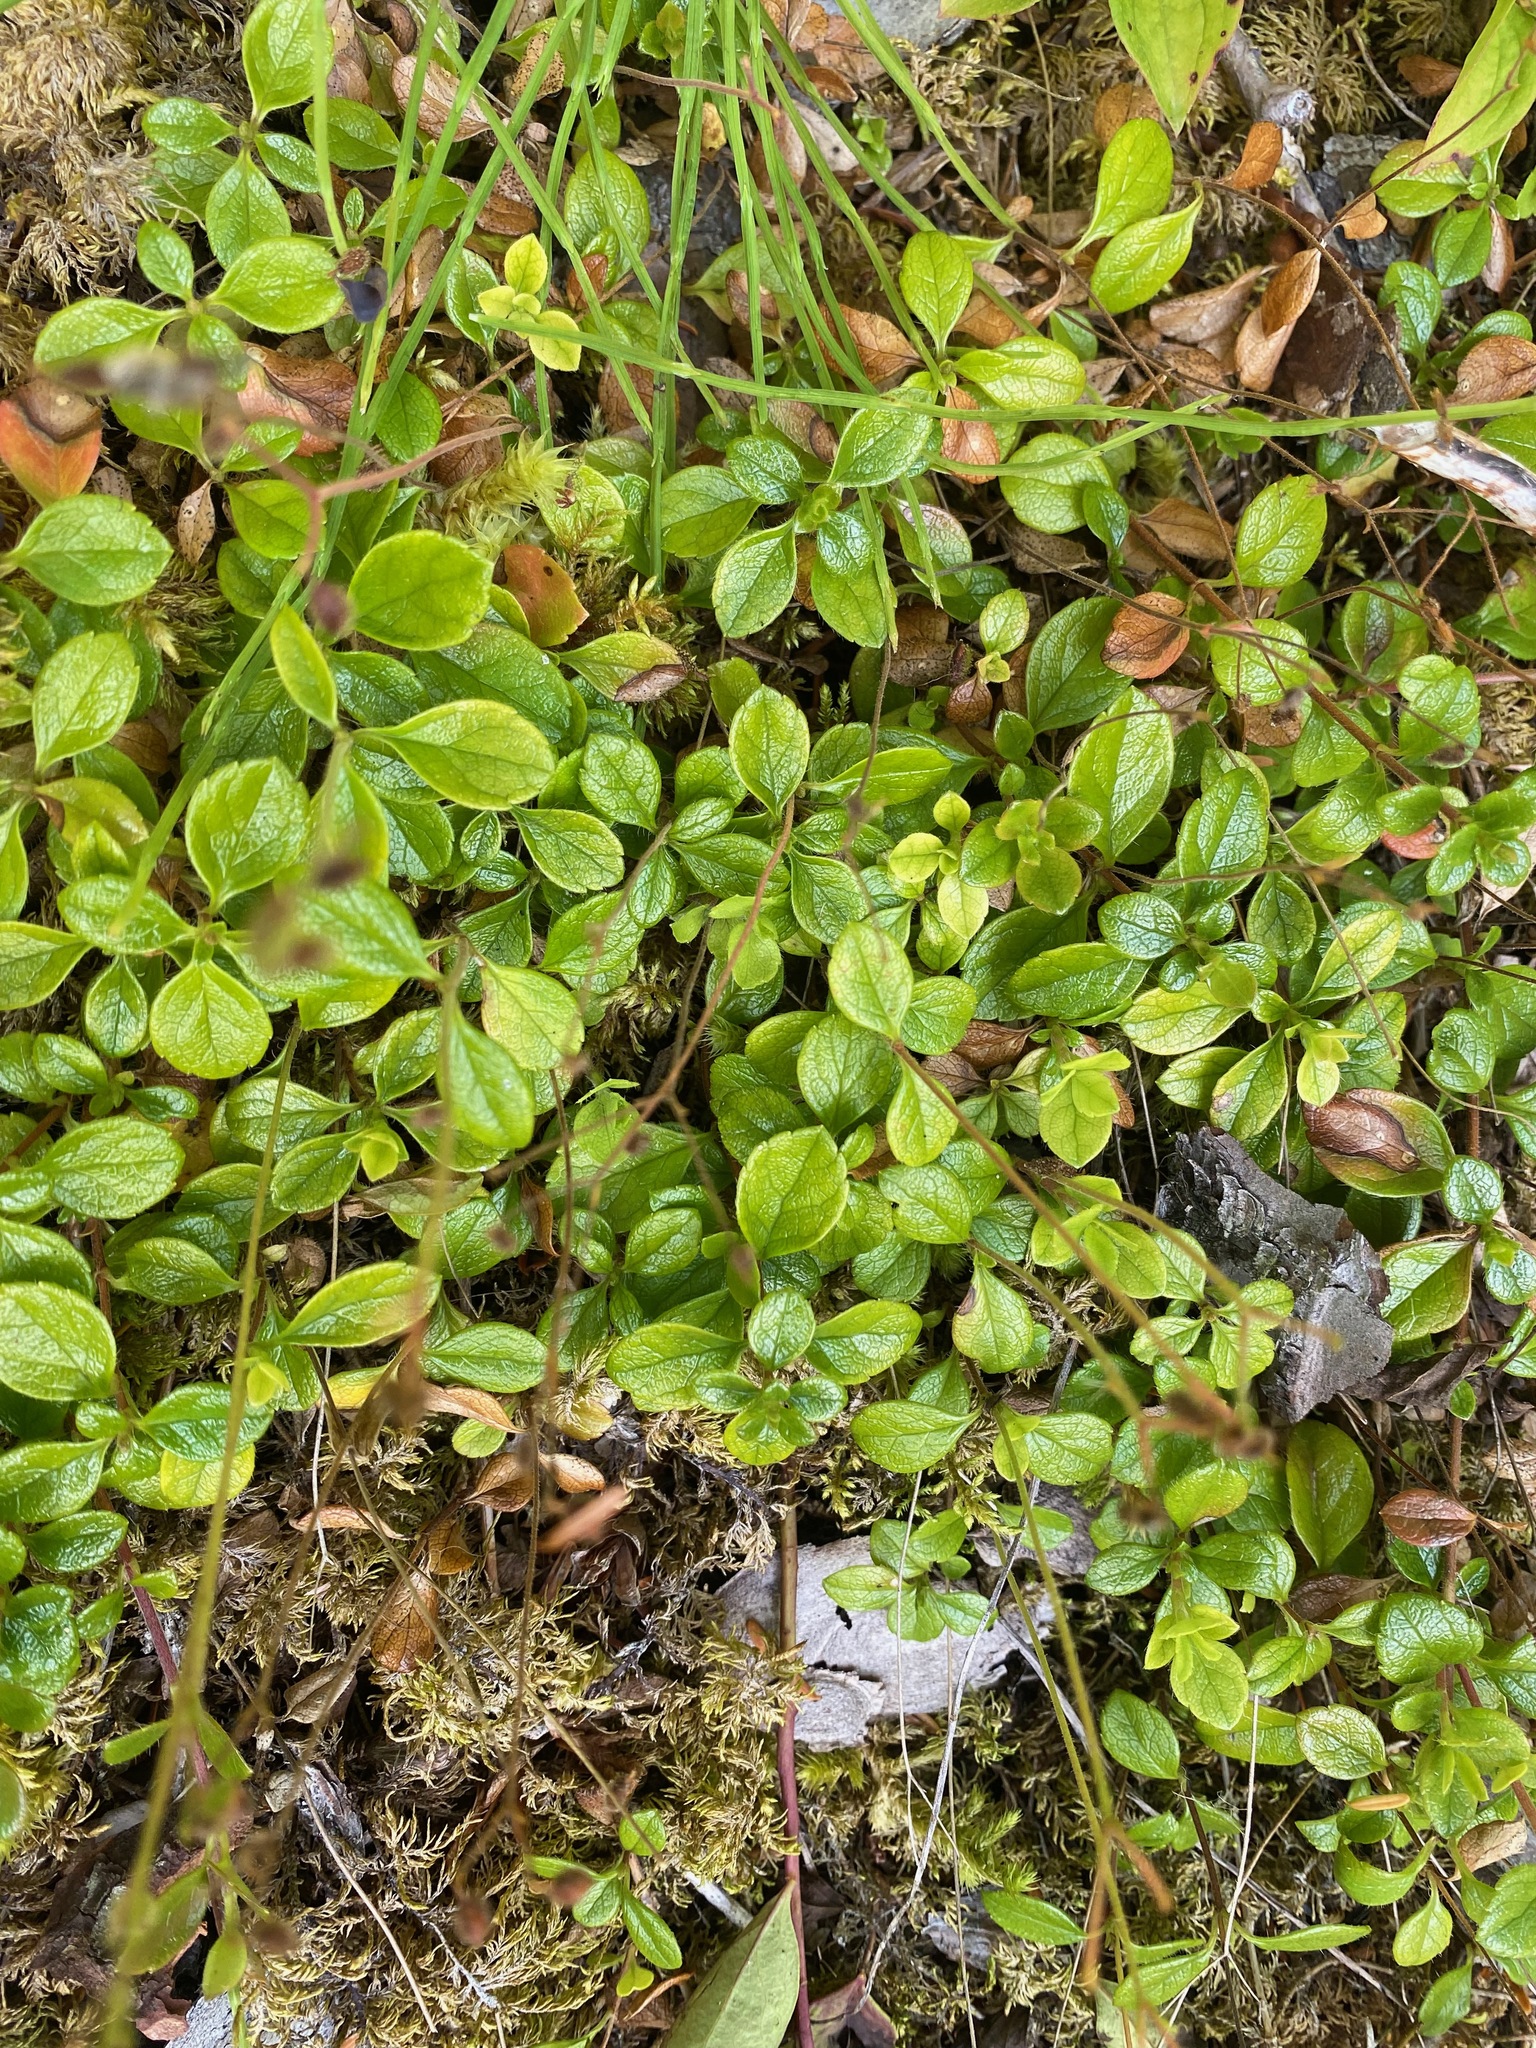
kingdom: Plantae
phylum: Tracheophyta
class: Magnoliopsida
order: Dipsacales
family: Caprifoliaceae
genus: Linnaea
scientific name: Linnaea borealis
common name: Twinflower
